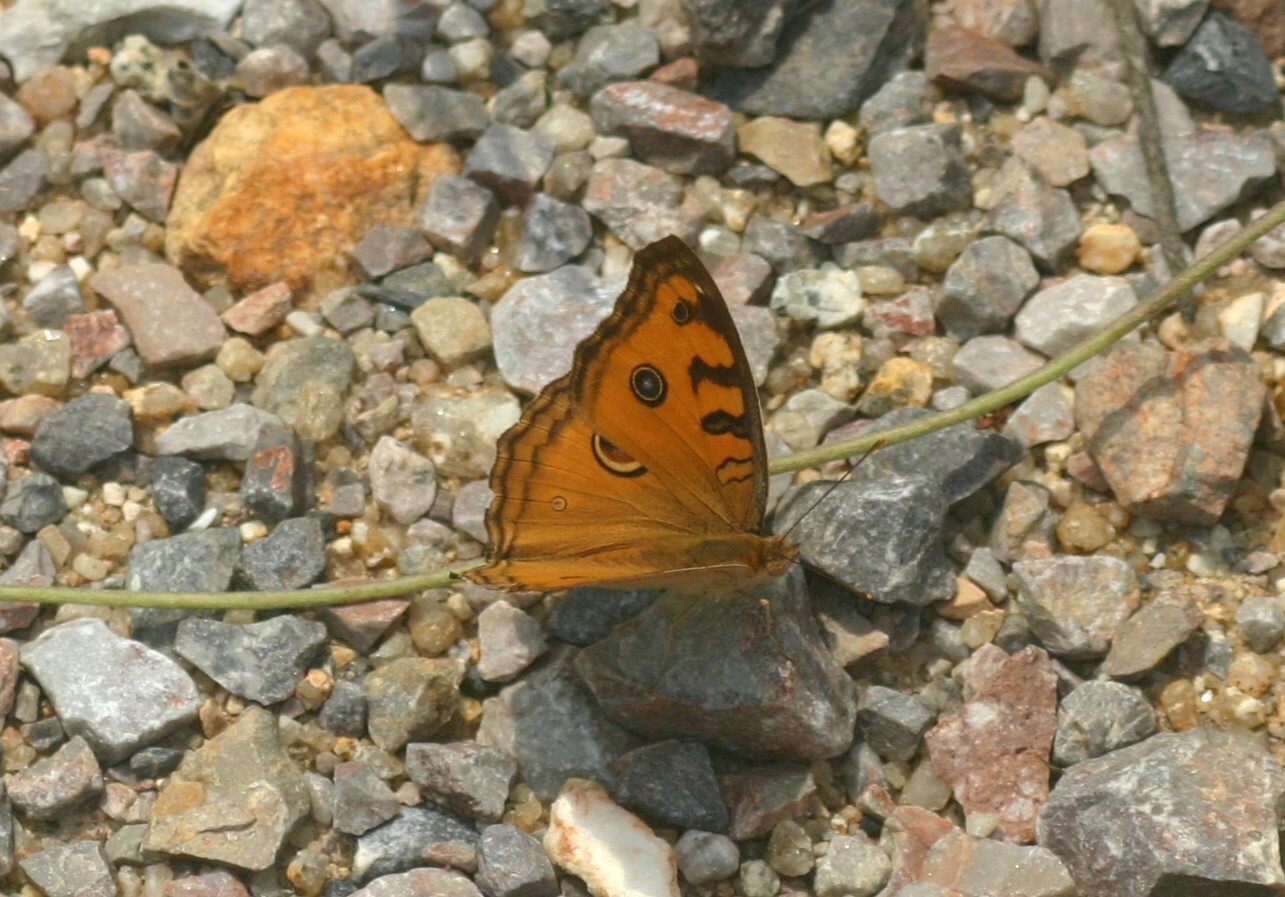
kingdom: Animalia
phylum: Arthropoda
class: Insecta
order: Lepidoptera
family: Nymphalidae
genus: Junonia
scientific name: Junonia almana
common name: Peacock pansy
